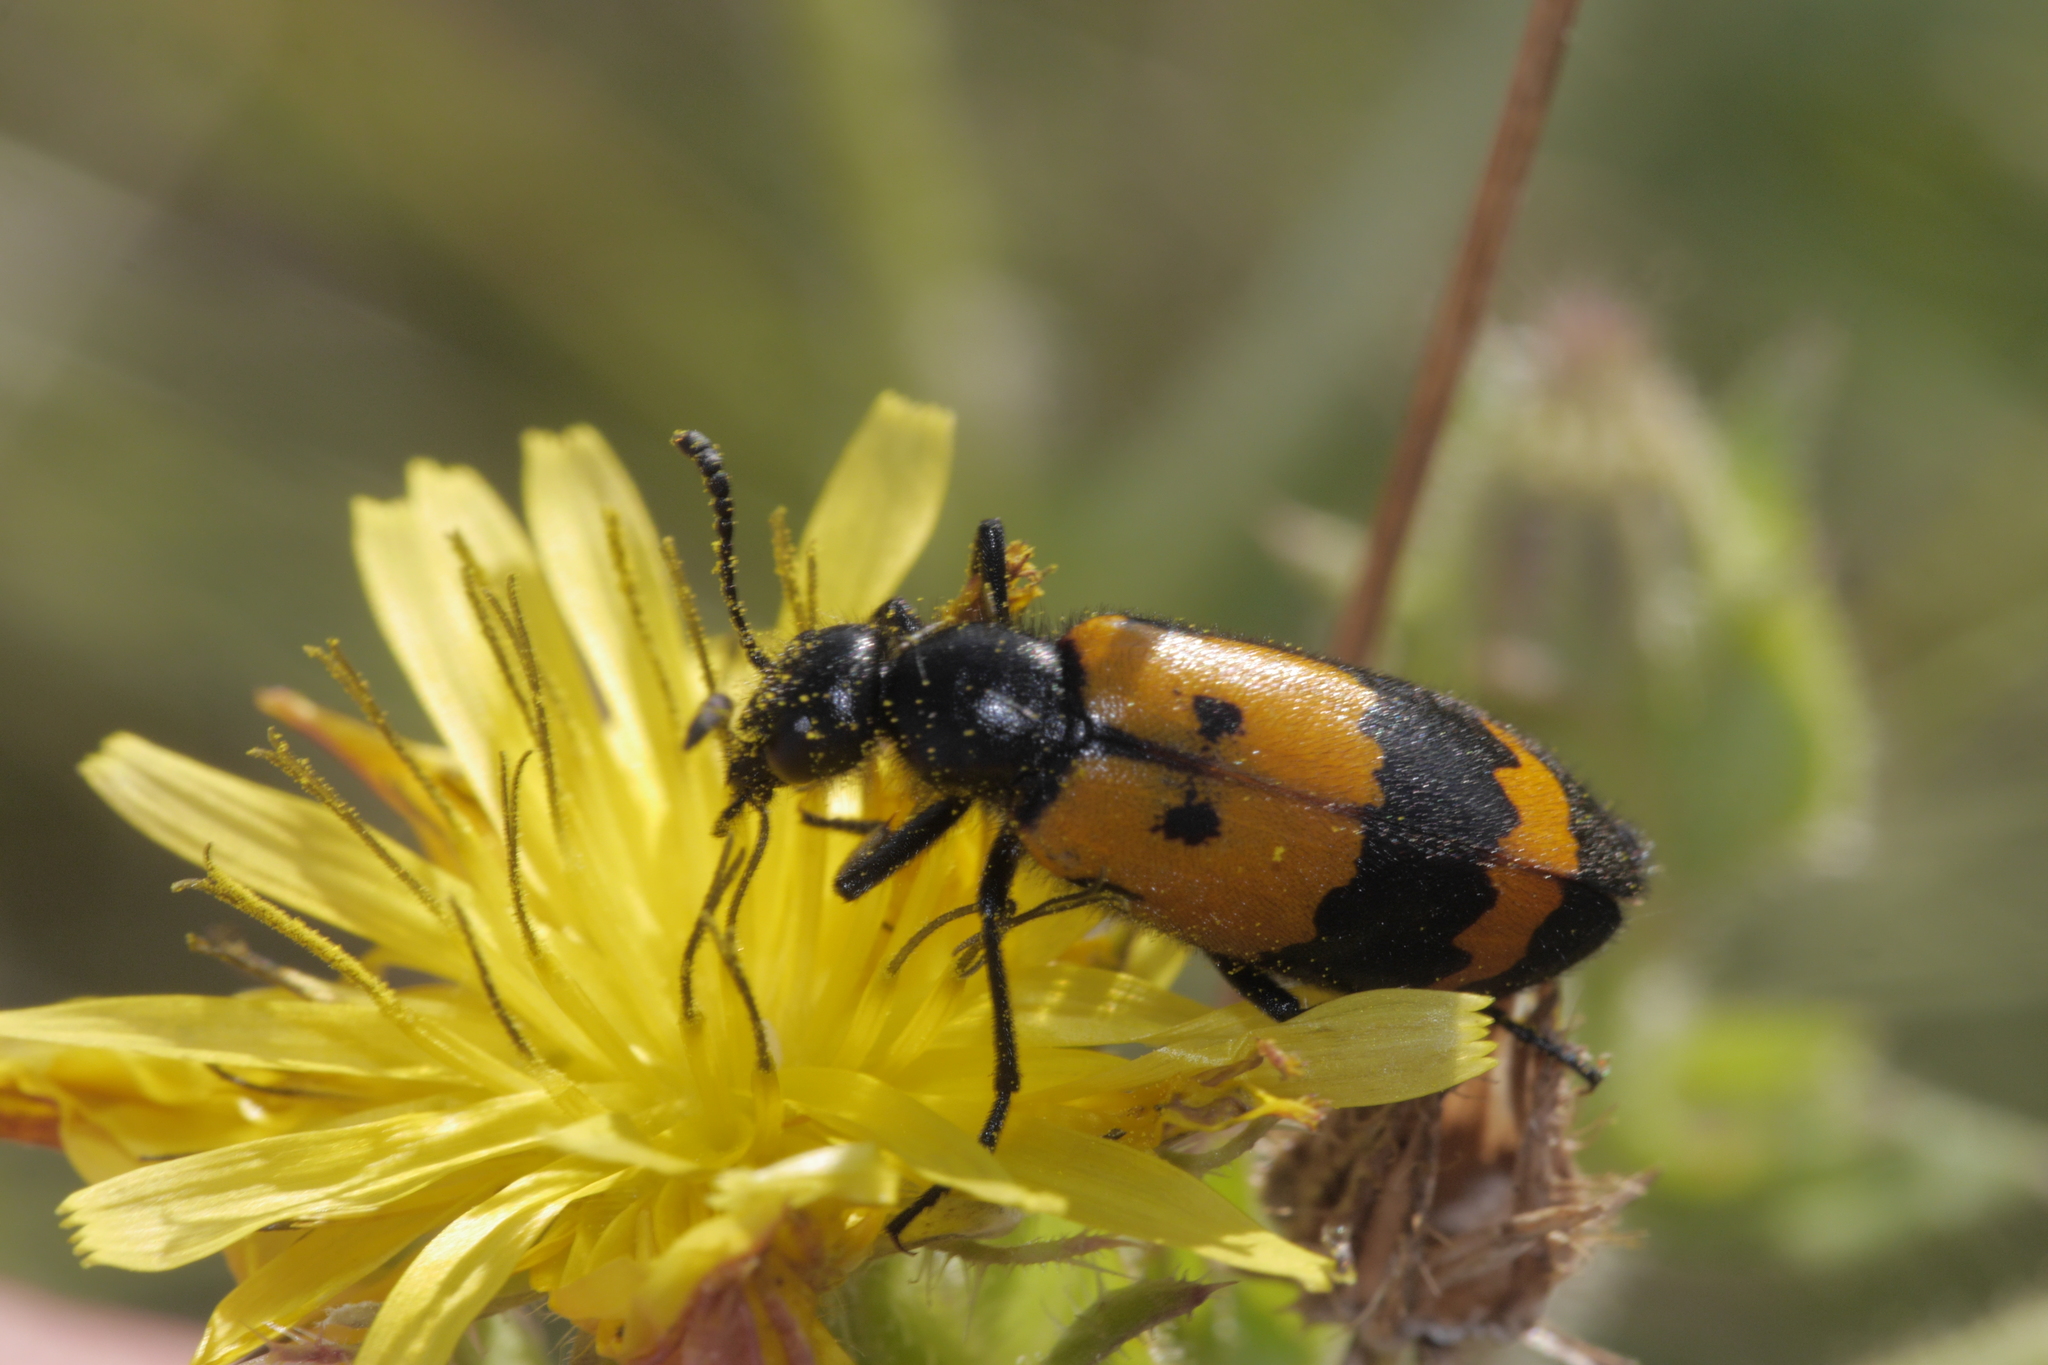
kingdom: Animalia
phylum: Arthropoda
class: Insecta
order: Coleoptera
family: Meloidae
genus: Mylabris
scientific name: Mylabris variabilis
